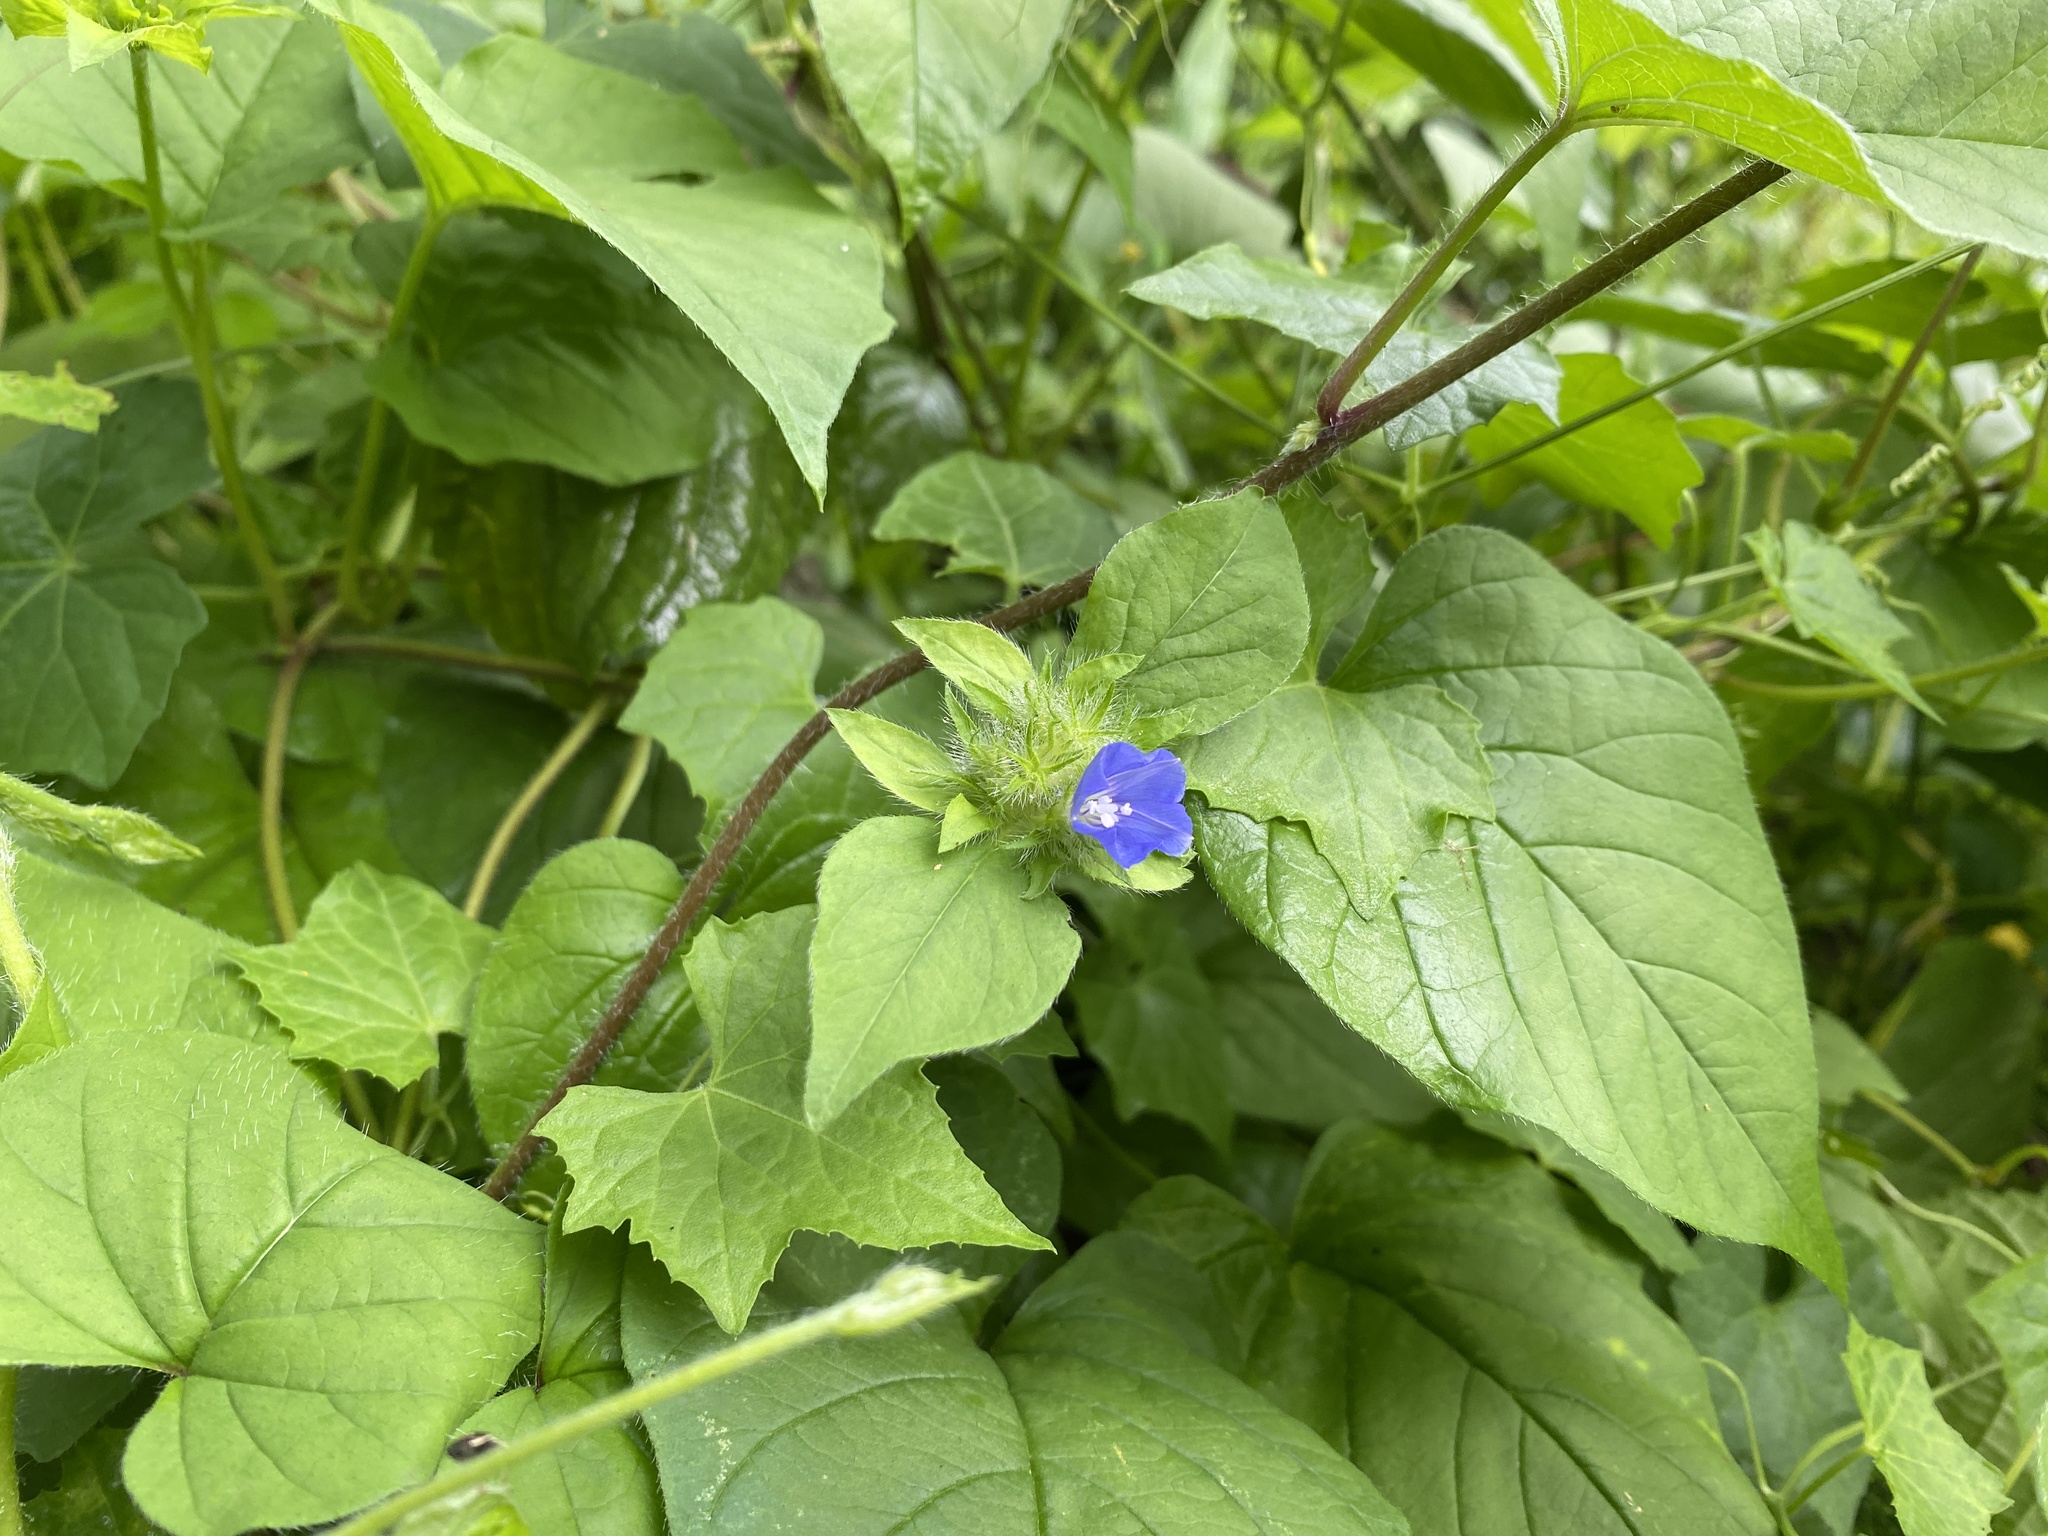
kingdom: Plantae
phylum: Tracheophyta
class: Magnoliopsida
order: Solanales
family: Convolvulaceae
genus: Jacquemontia
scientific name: Jacquemontia tamnifolia
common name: Hairy clustervine
